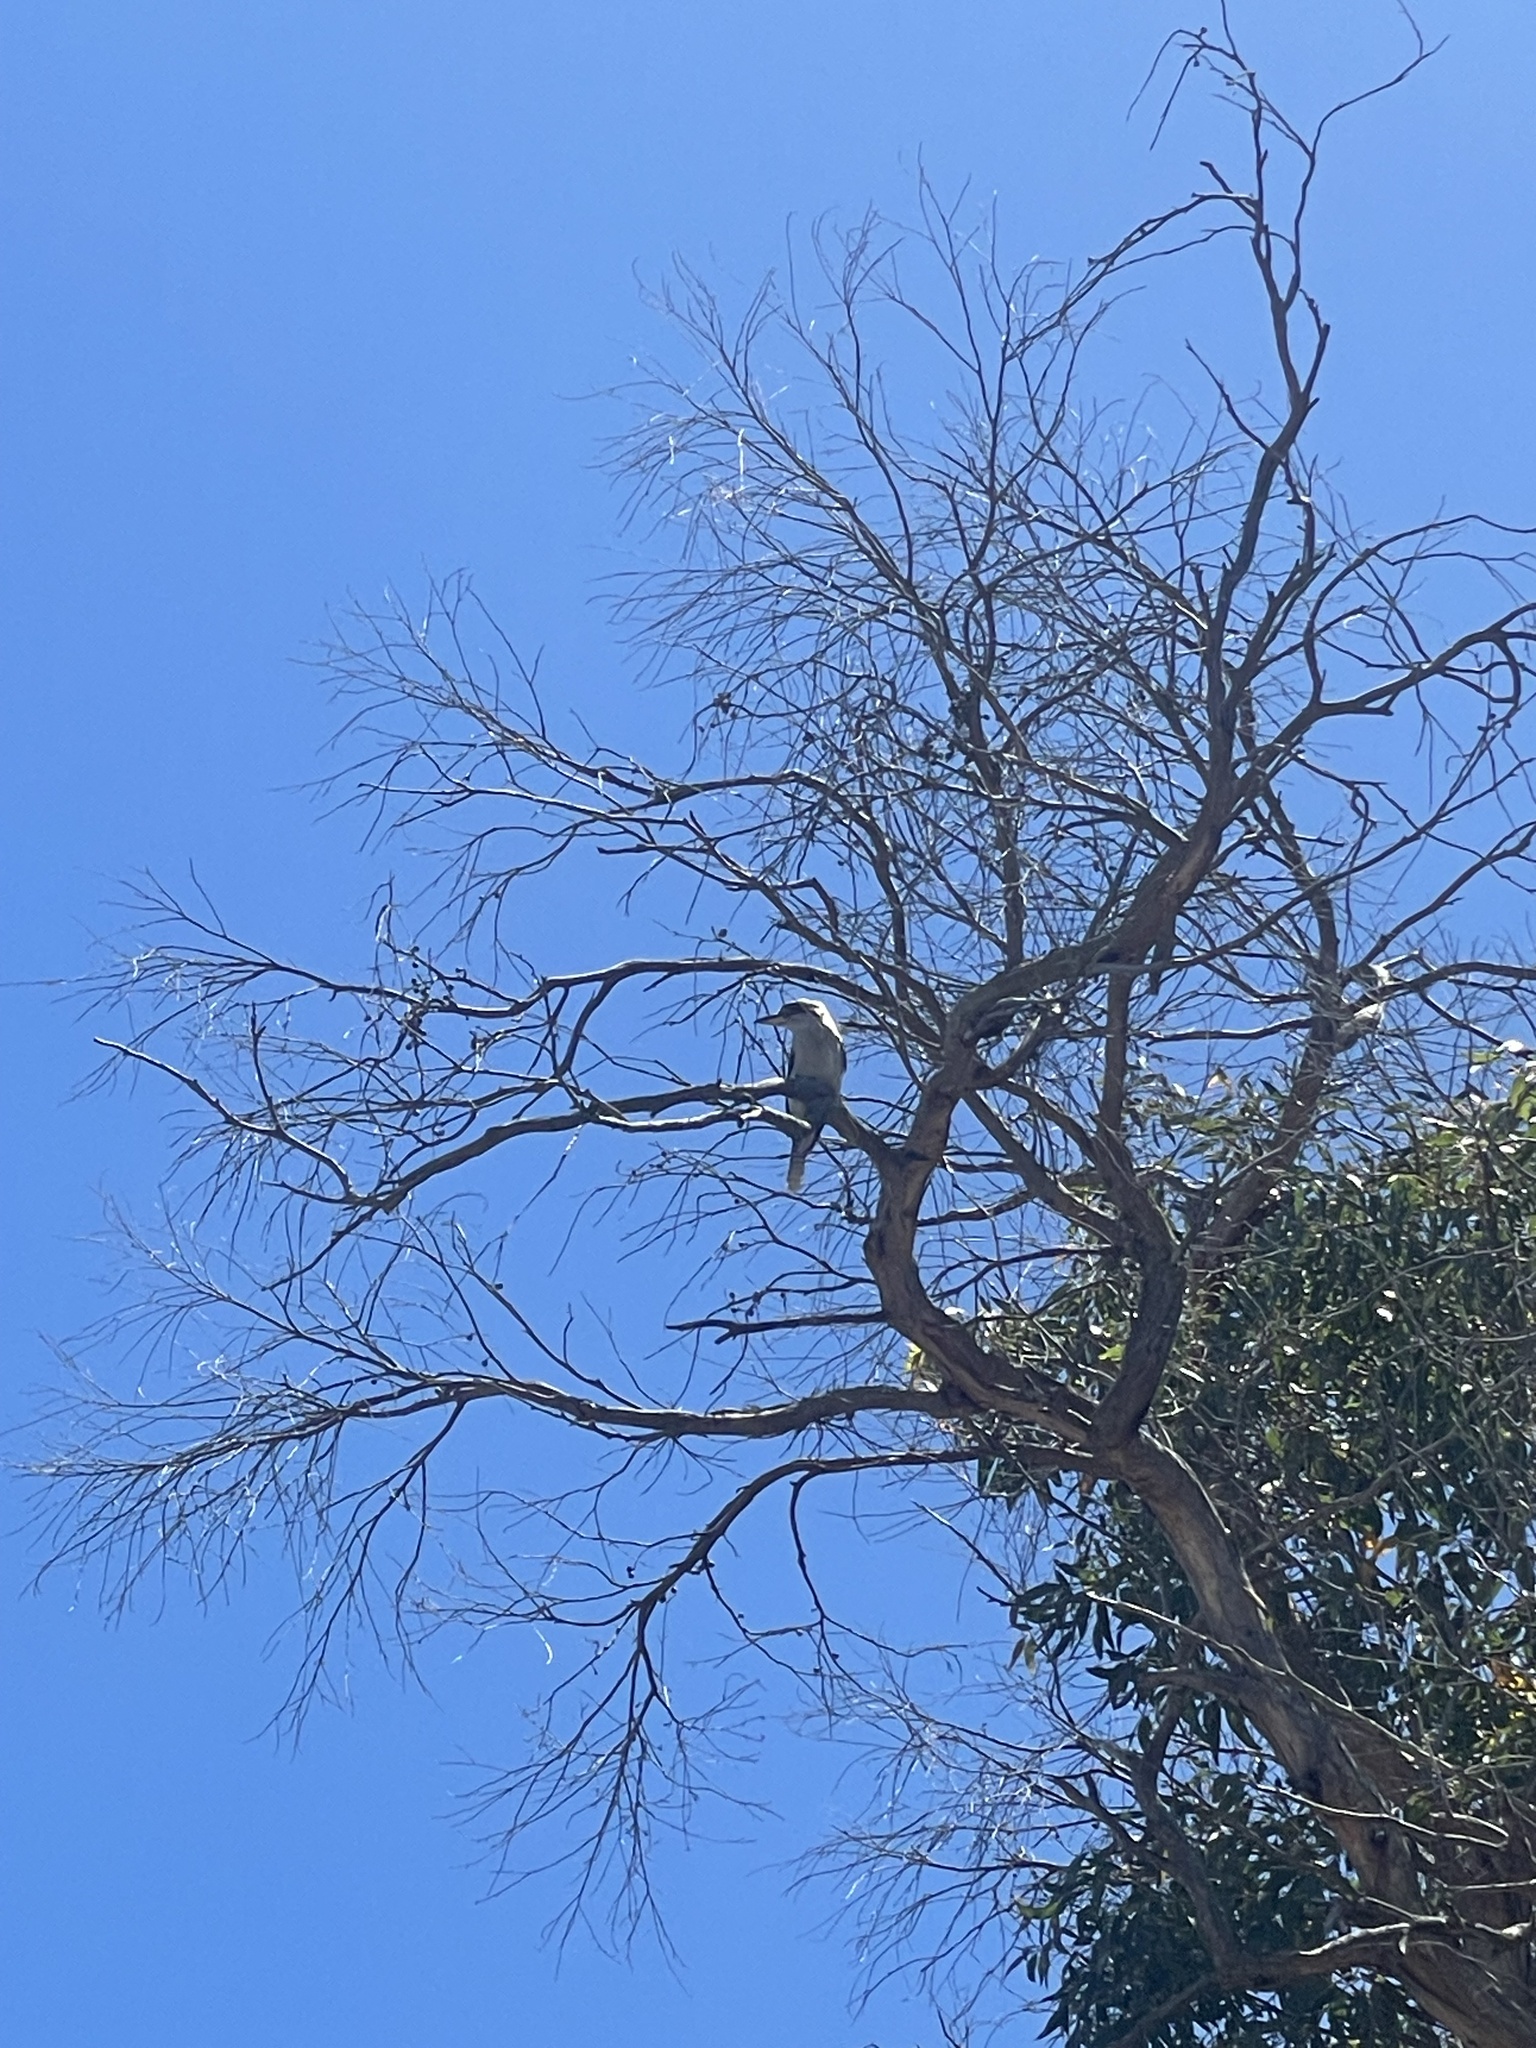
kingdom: Animalia
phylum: Chordata
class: Aves
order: Coraciiformes
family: Alcedinidae
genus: Dacelo
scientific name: Dacelo novaeguineae
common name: Laughing kookaburra
